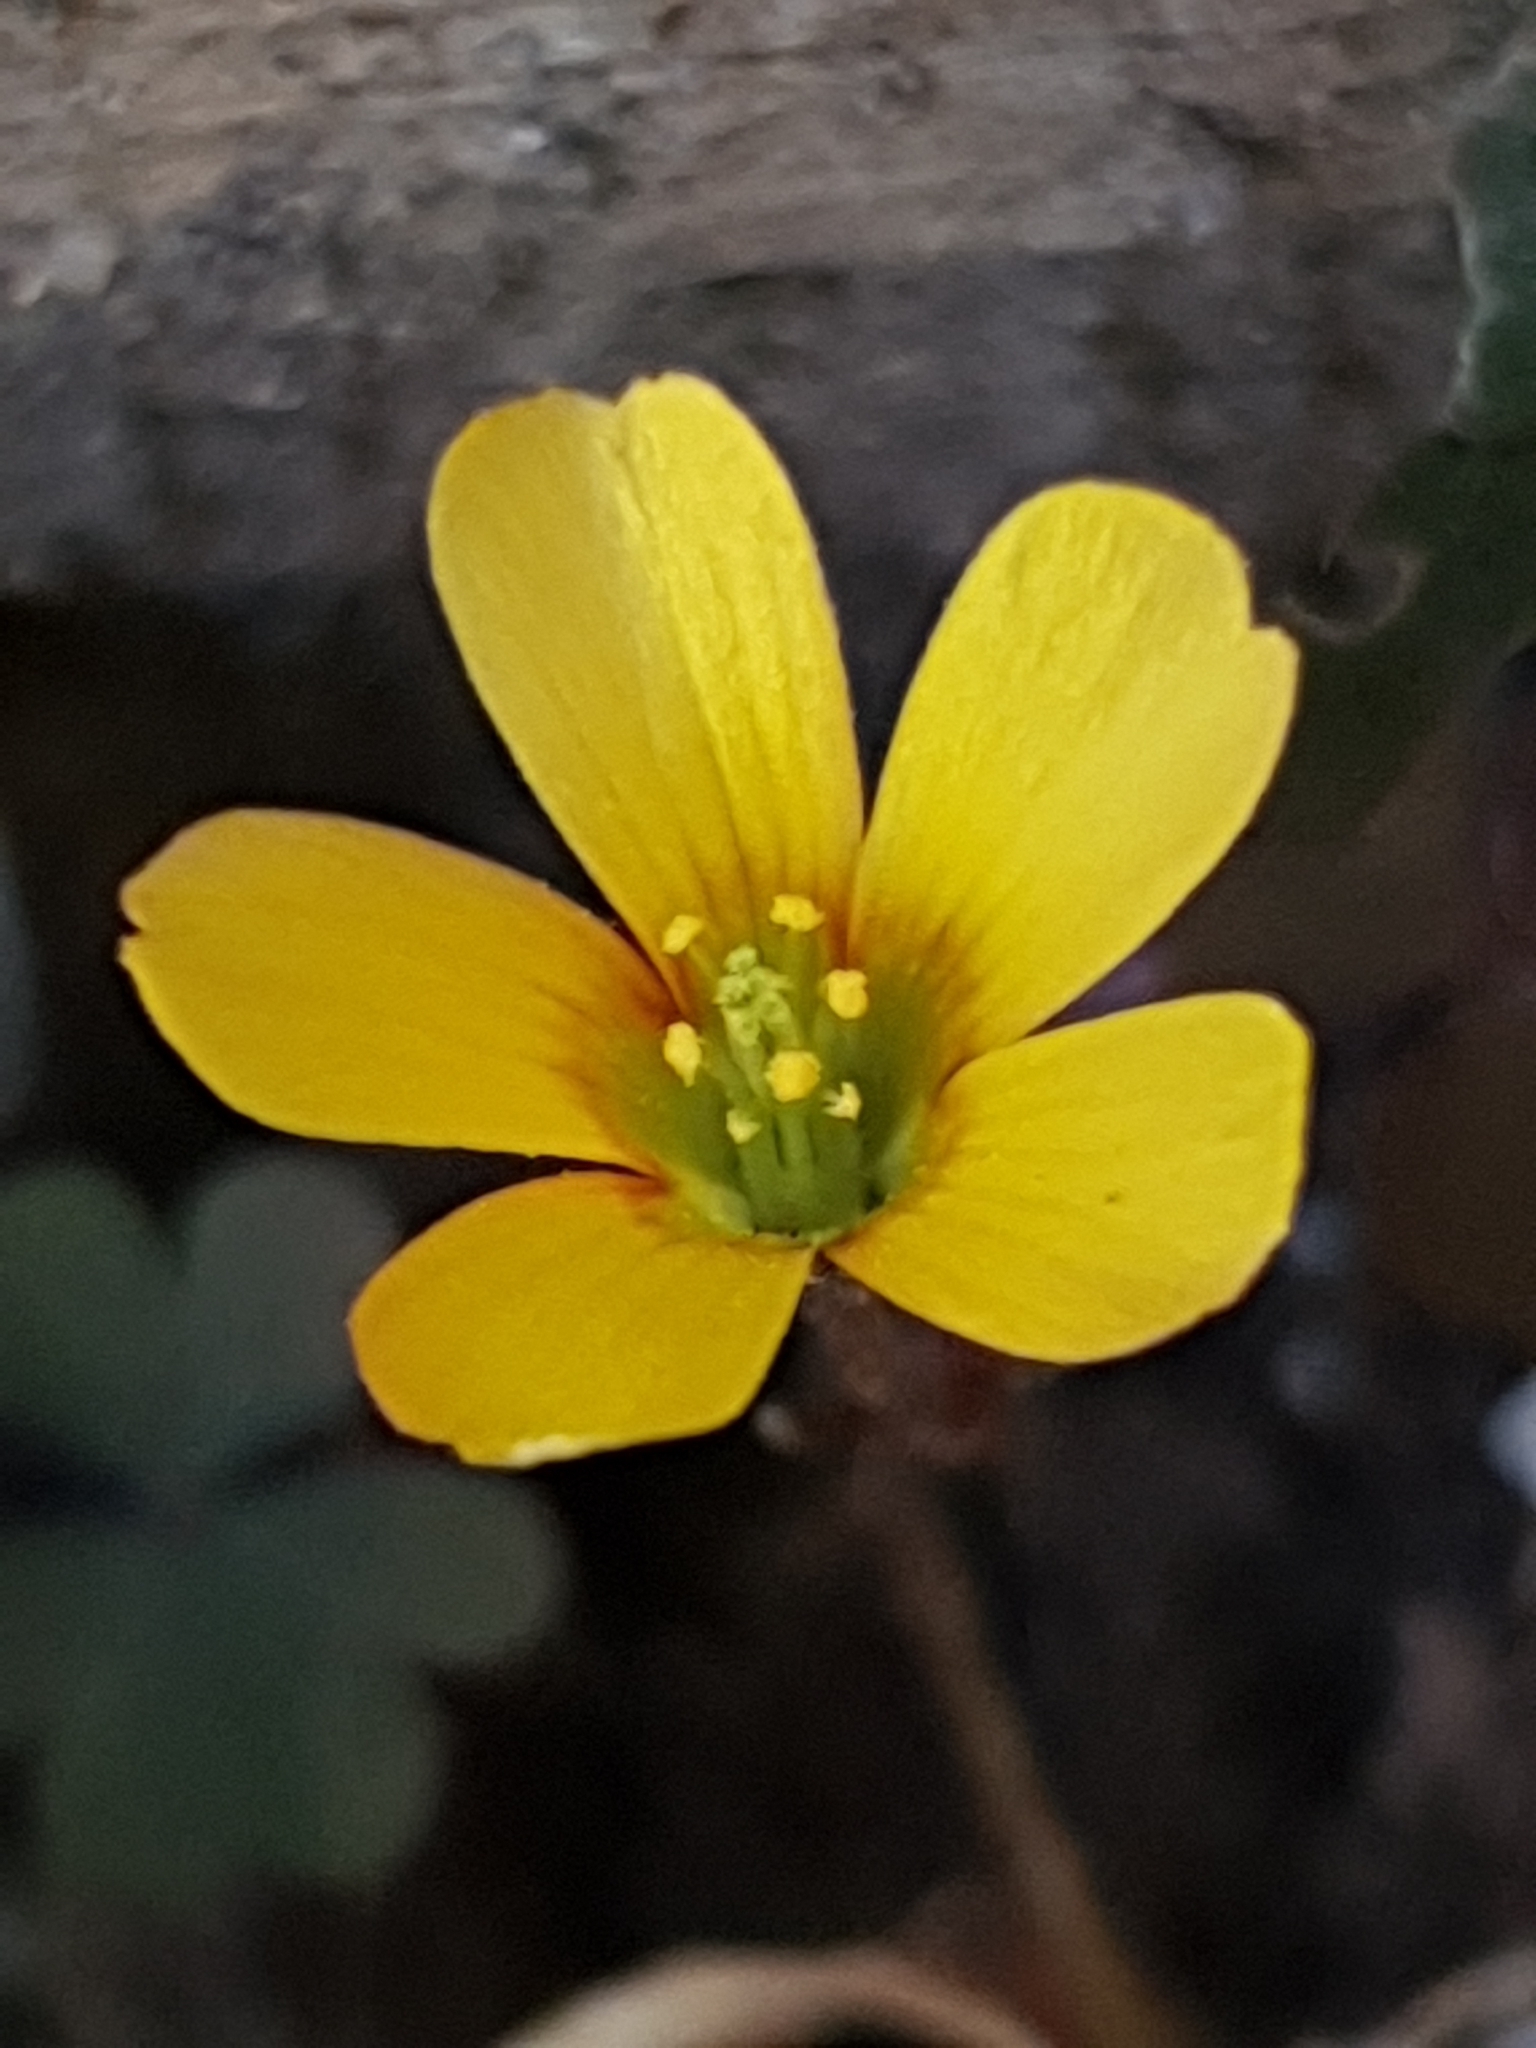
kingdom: Plantae
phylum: Tracheophyta
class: Magnoliopsida
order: Oxalidales
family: Oxalidaceae
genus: Oxalis
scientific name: Oxalis corniculata
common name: Procumbent yellow-sorrel
